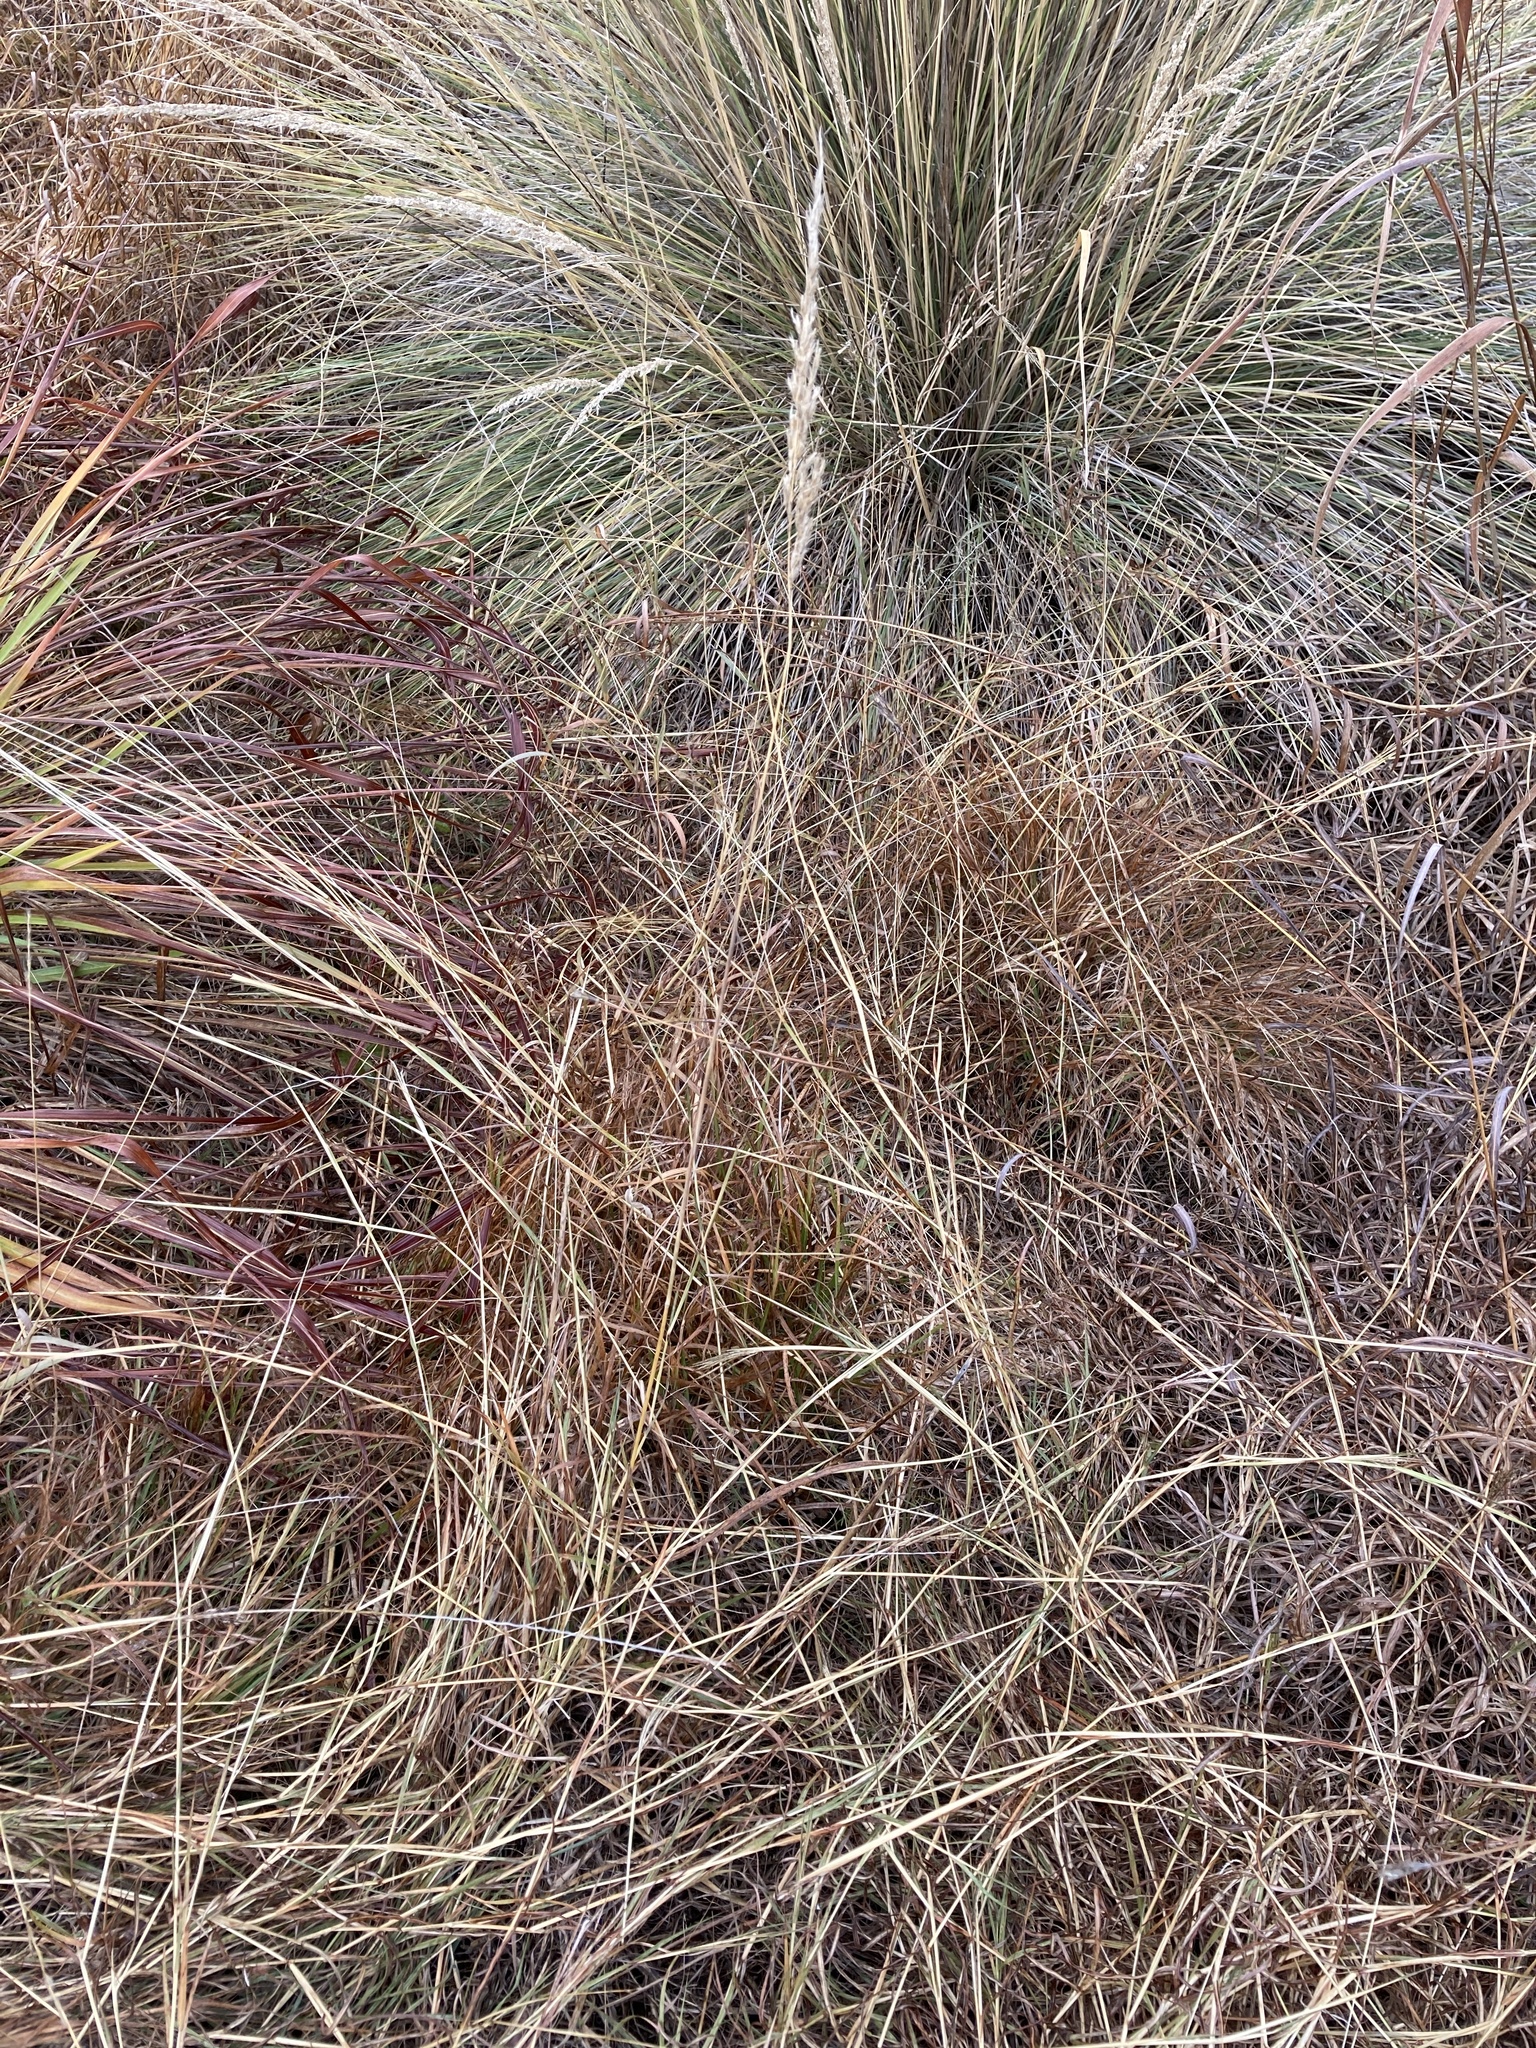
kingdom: Plantae
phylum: Tracheophyta
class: Liliopsida
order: Poales
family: Poaceae
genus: Sorghastrum
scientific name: Sorghastrum nutans
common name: Indian grass
